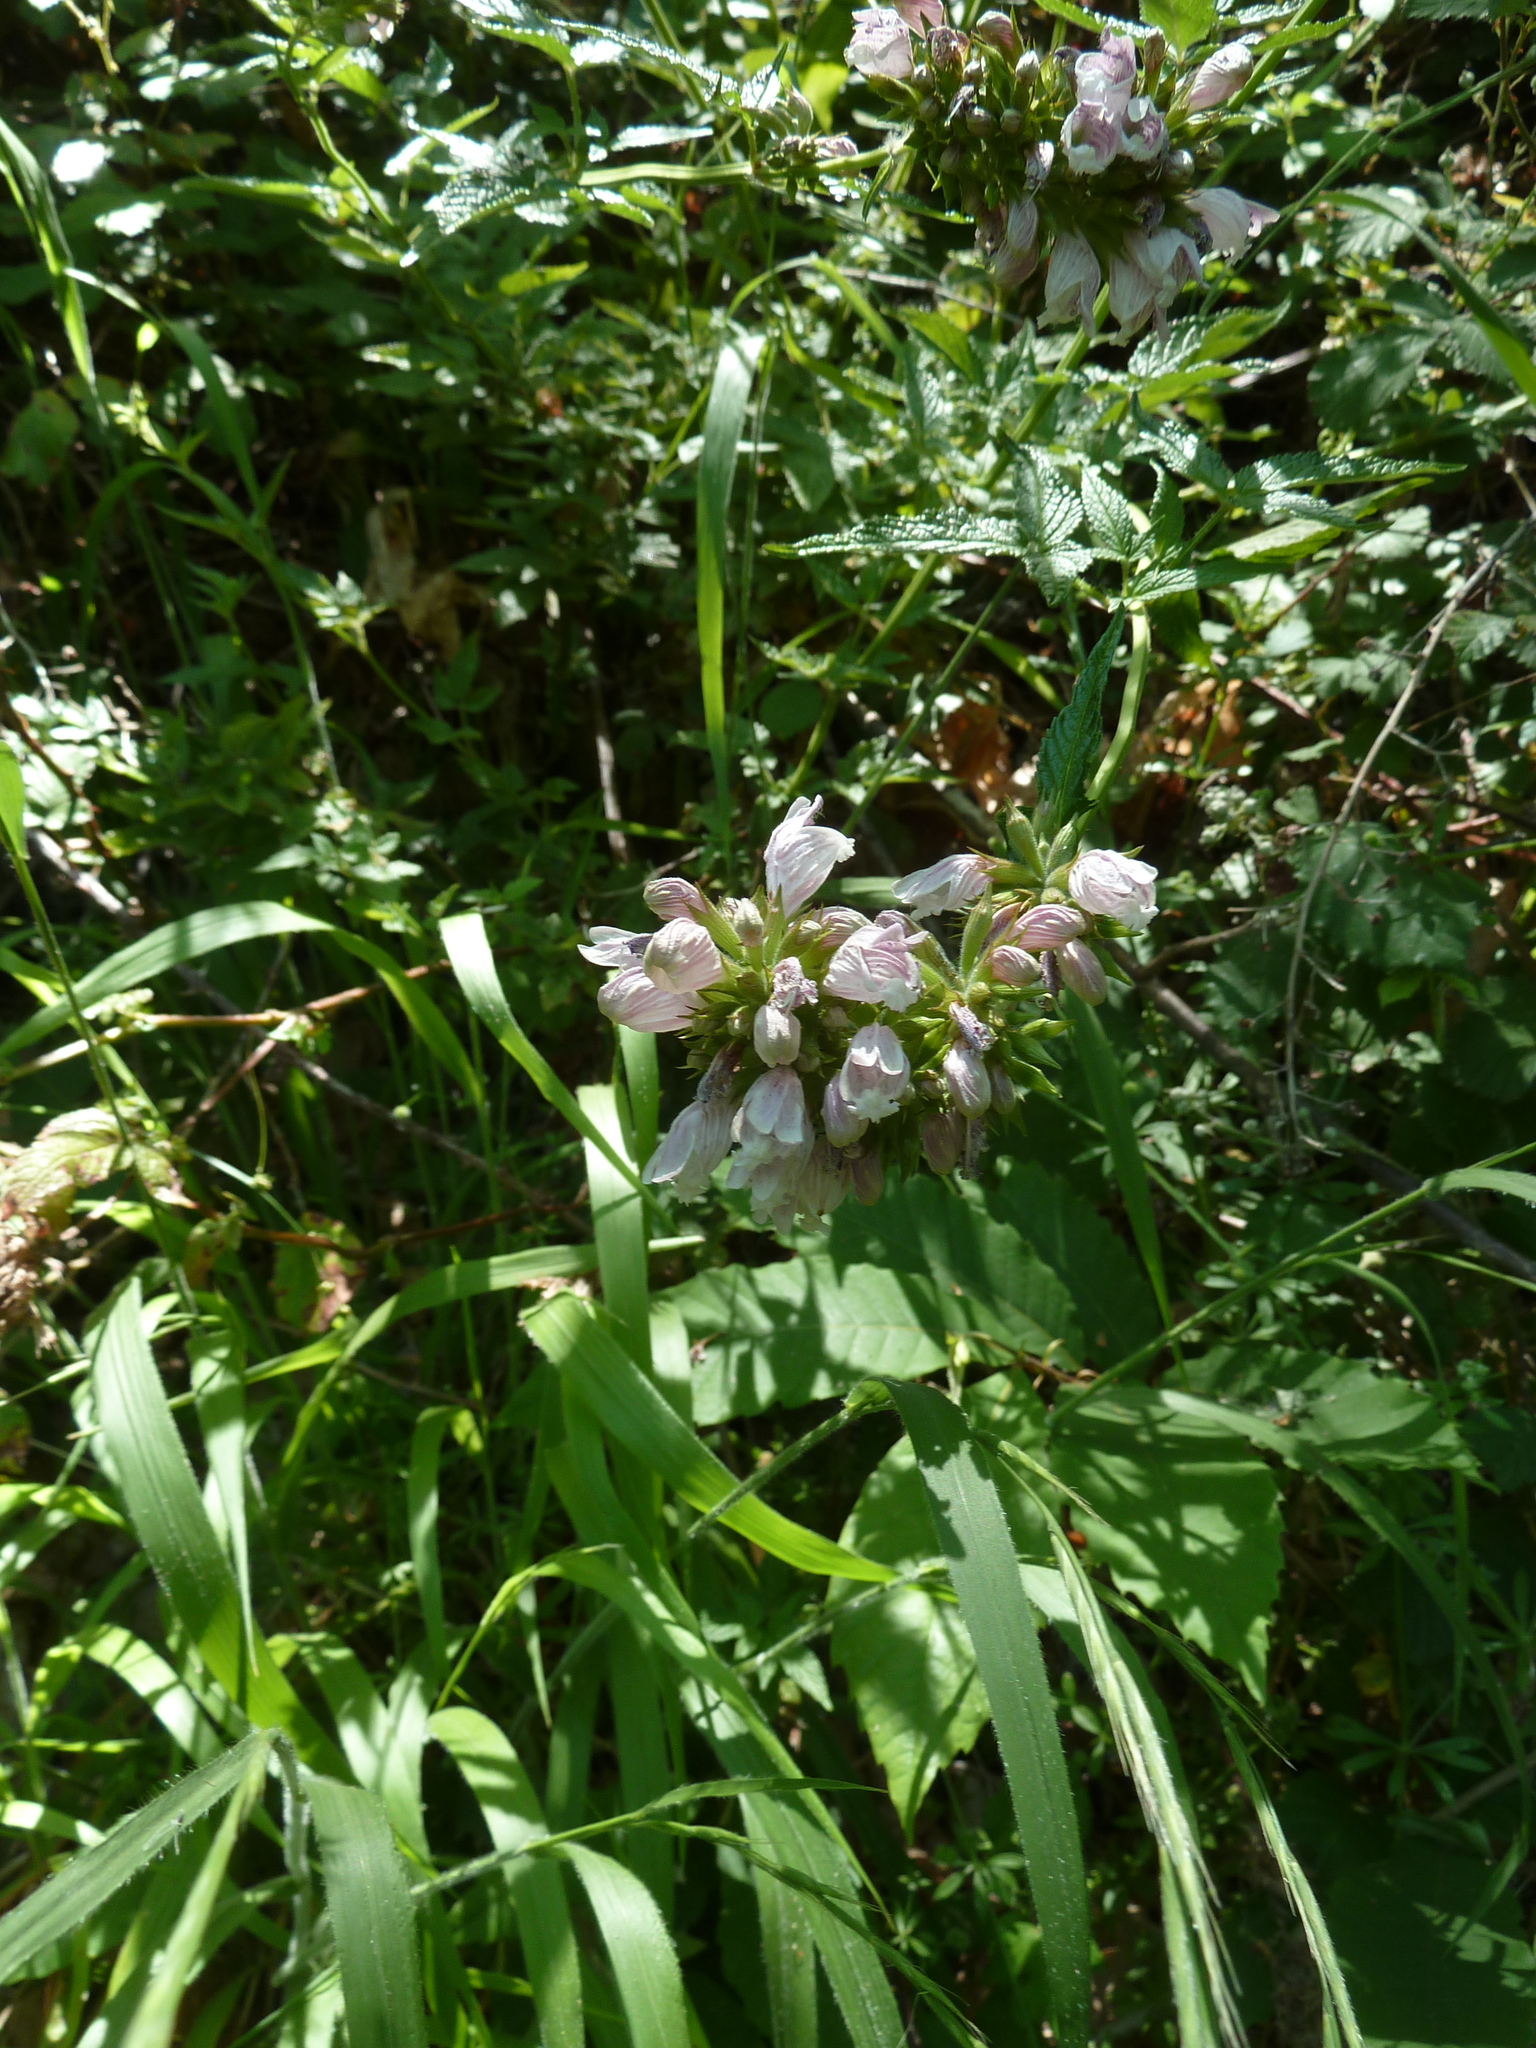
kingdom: Plantae
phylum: Tracheophyta
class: Magnoliopsida
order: Lamiales
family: Lamiaceae
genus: Cedronella
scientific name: Cedronella canariensis
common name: Canary islands balm
